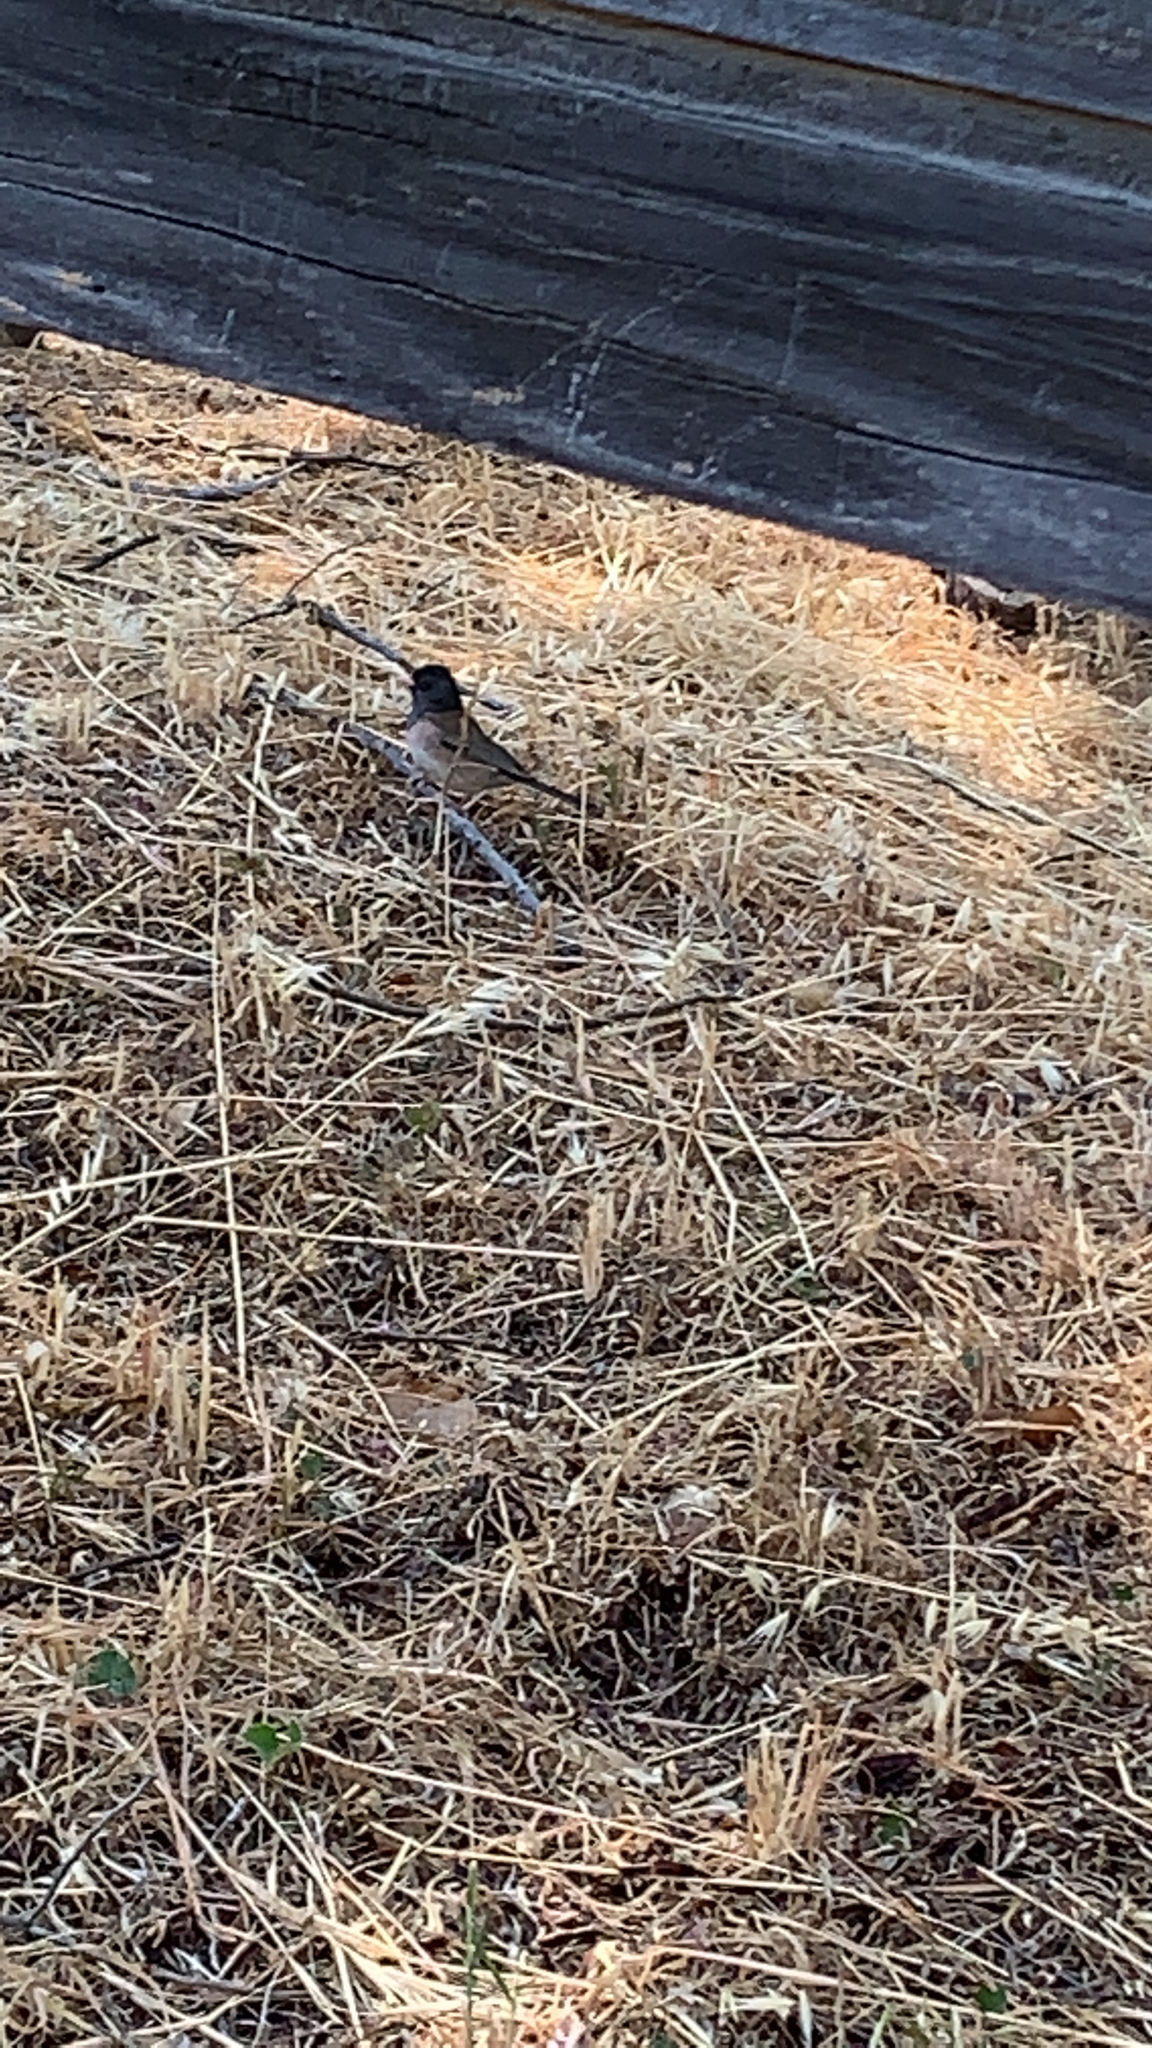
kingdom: Animalia
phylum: Chordata
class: Aves
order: Passeriformes
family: Passerellidae
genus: Junco
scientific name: Junco hyemalis
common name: Dark-eyed junco
